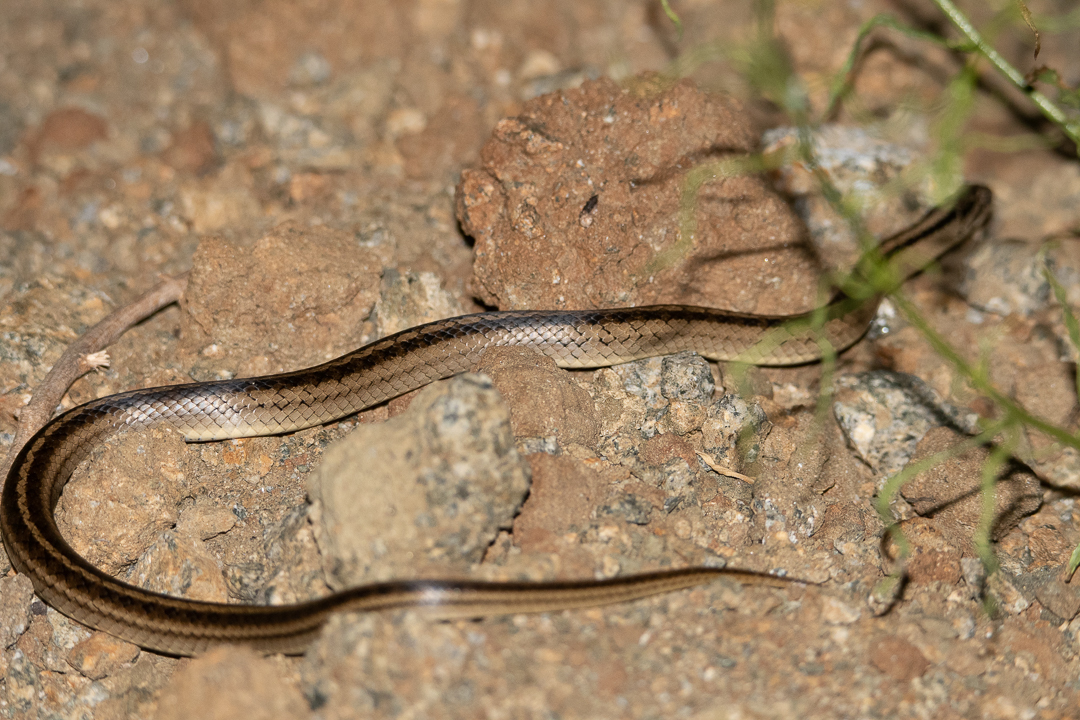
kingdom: Animalia
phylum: Chordata
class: Squamata
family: Colubridae
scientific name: Colubridae
